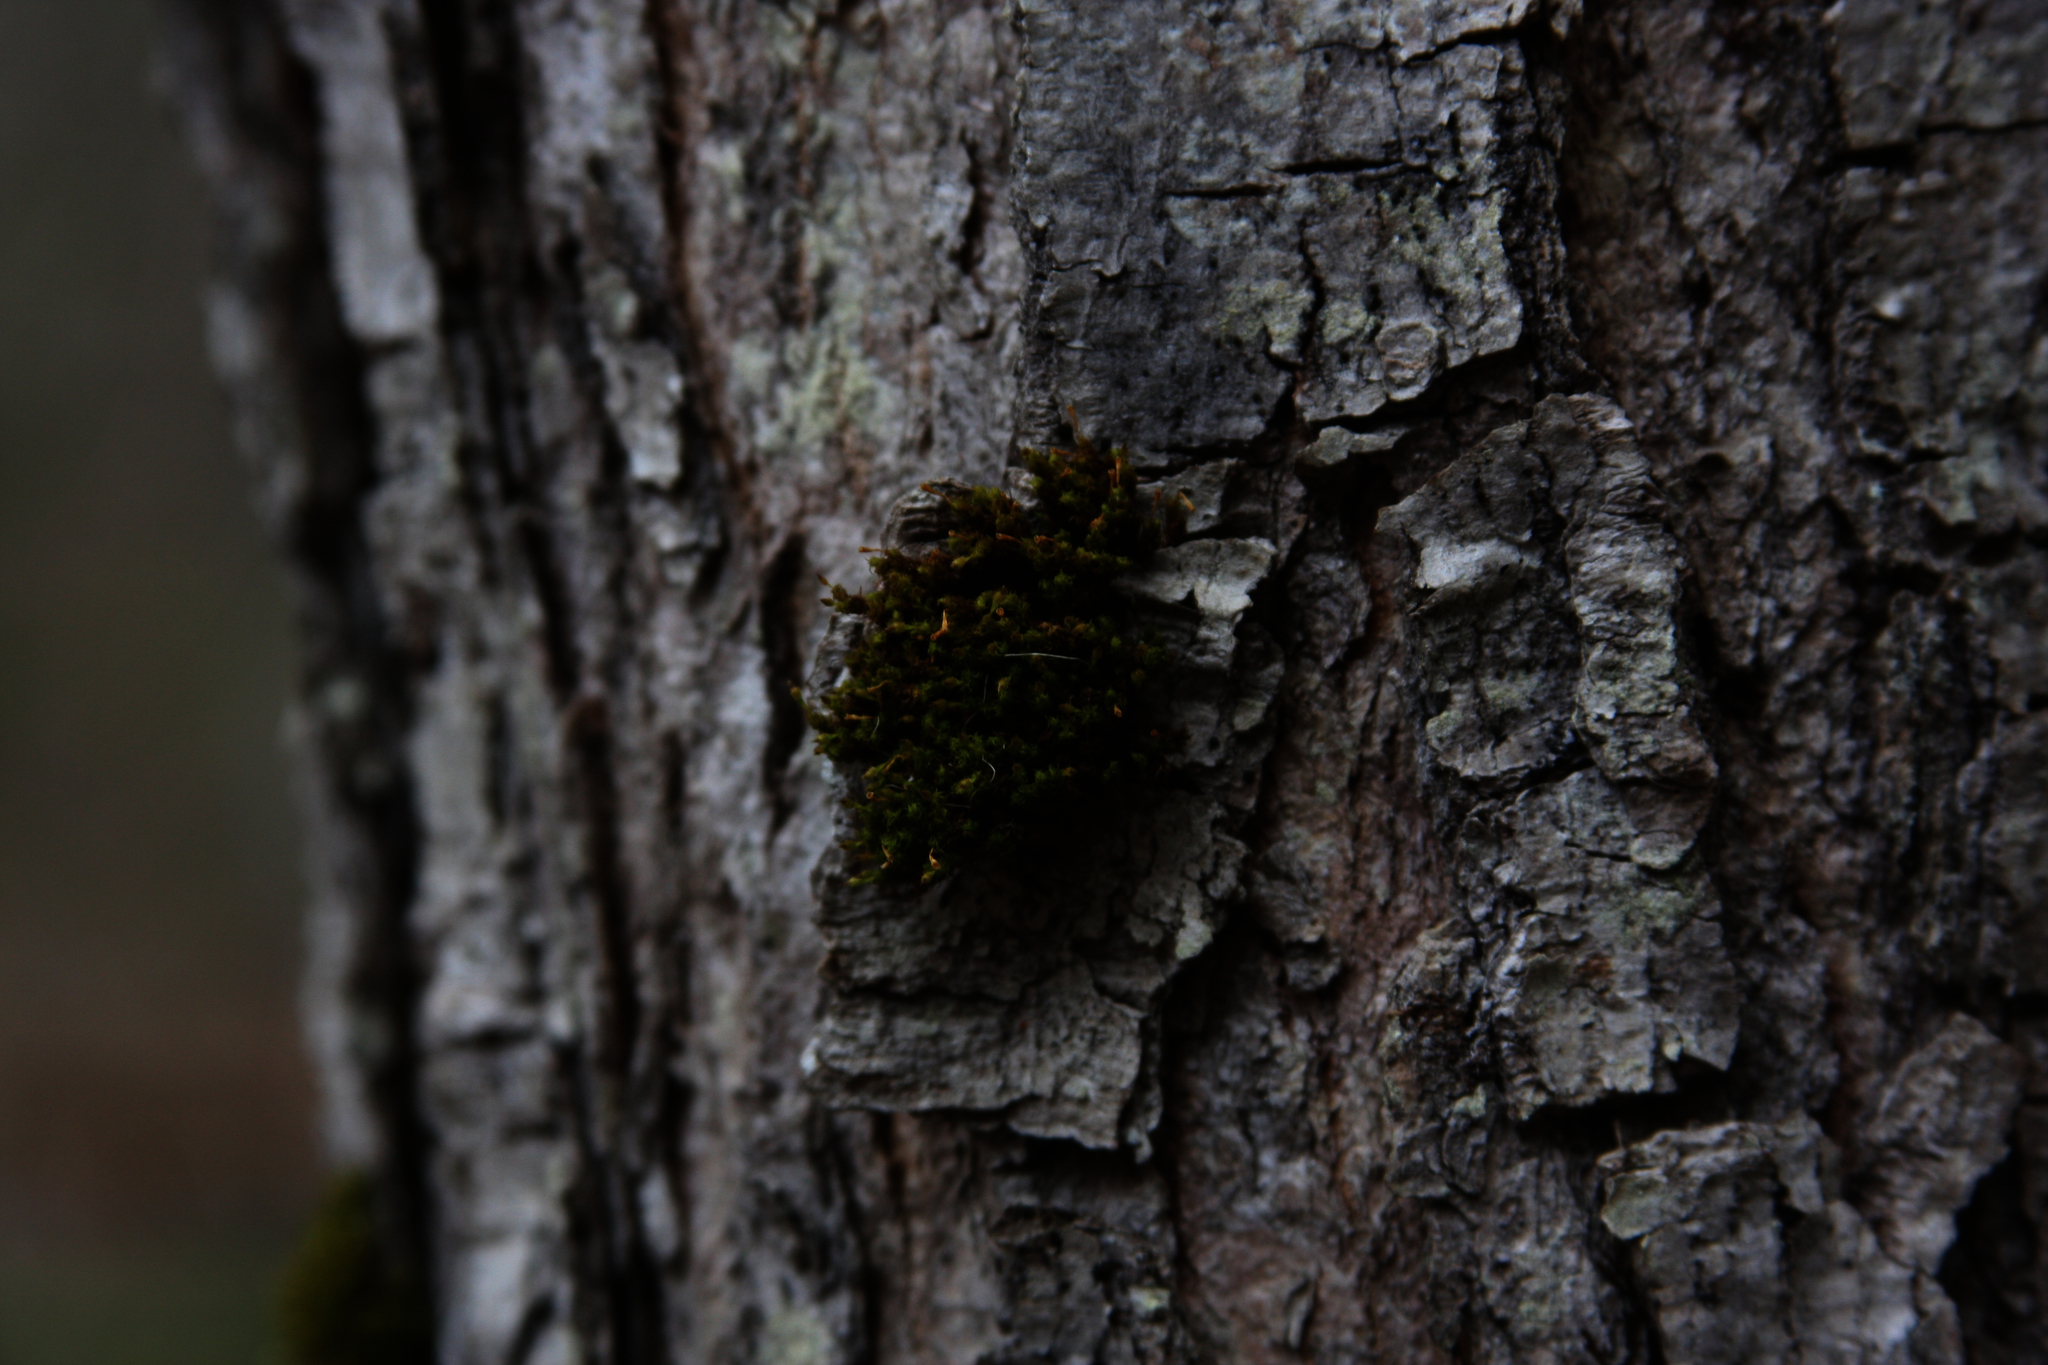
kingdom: Plantae
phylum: Bryophyta
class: Bryopsida
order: Orthotrichales
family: Orthotrichaceae
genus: Ulota
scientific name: Ulota crispa
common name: Crisped pincushion moss
